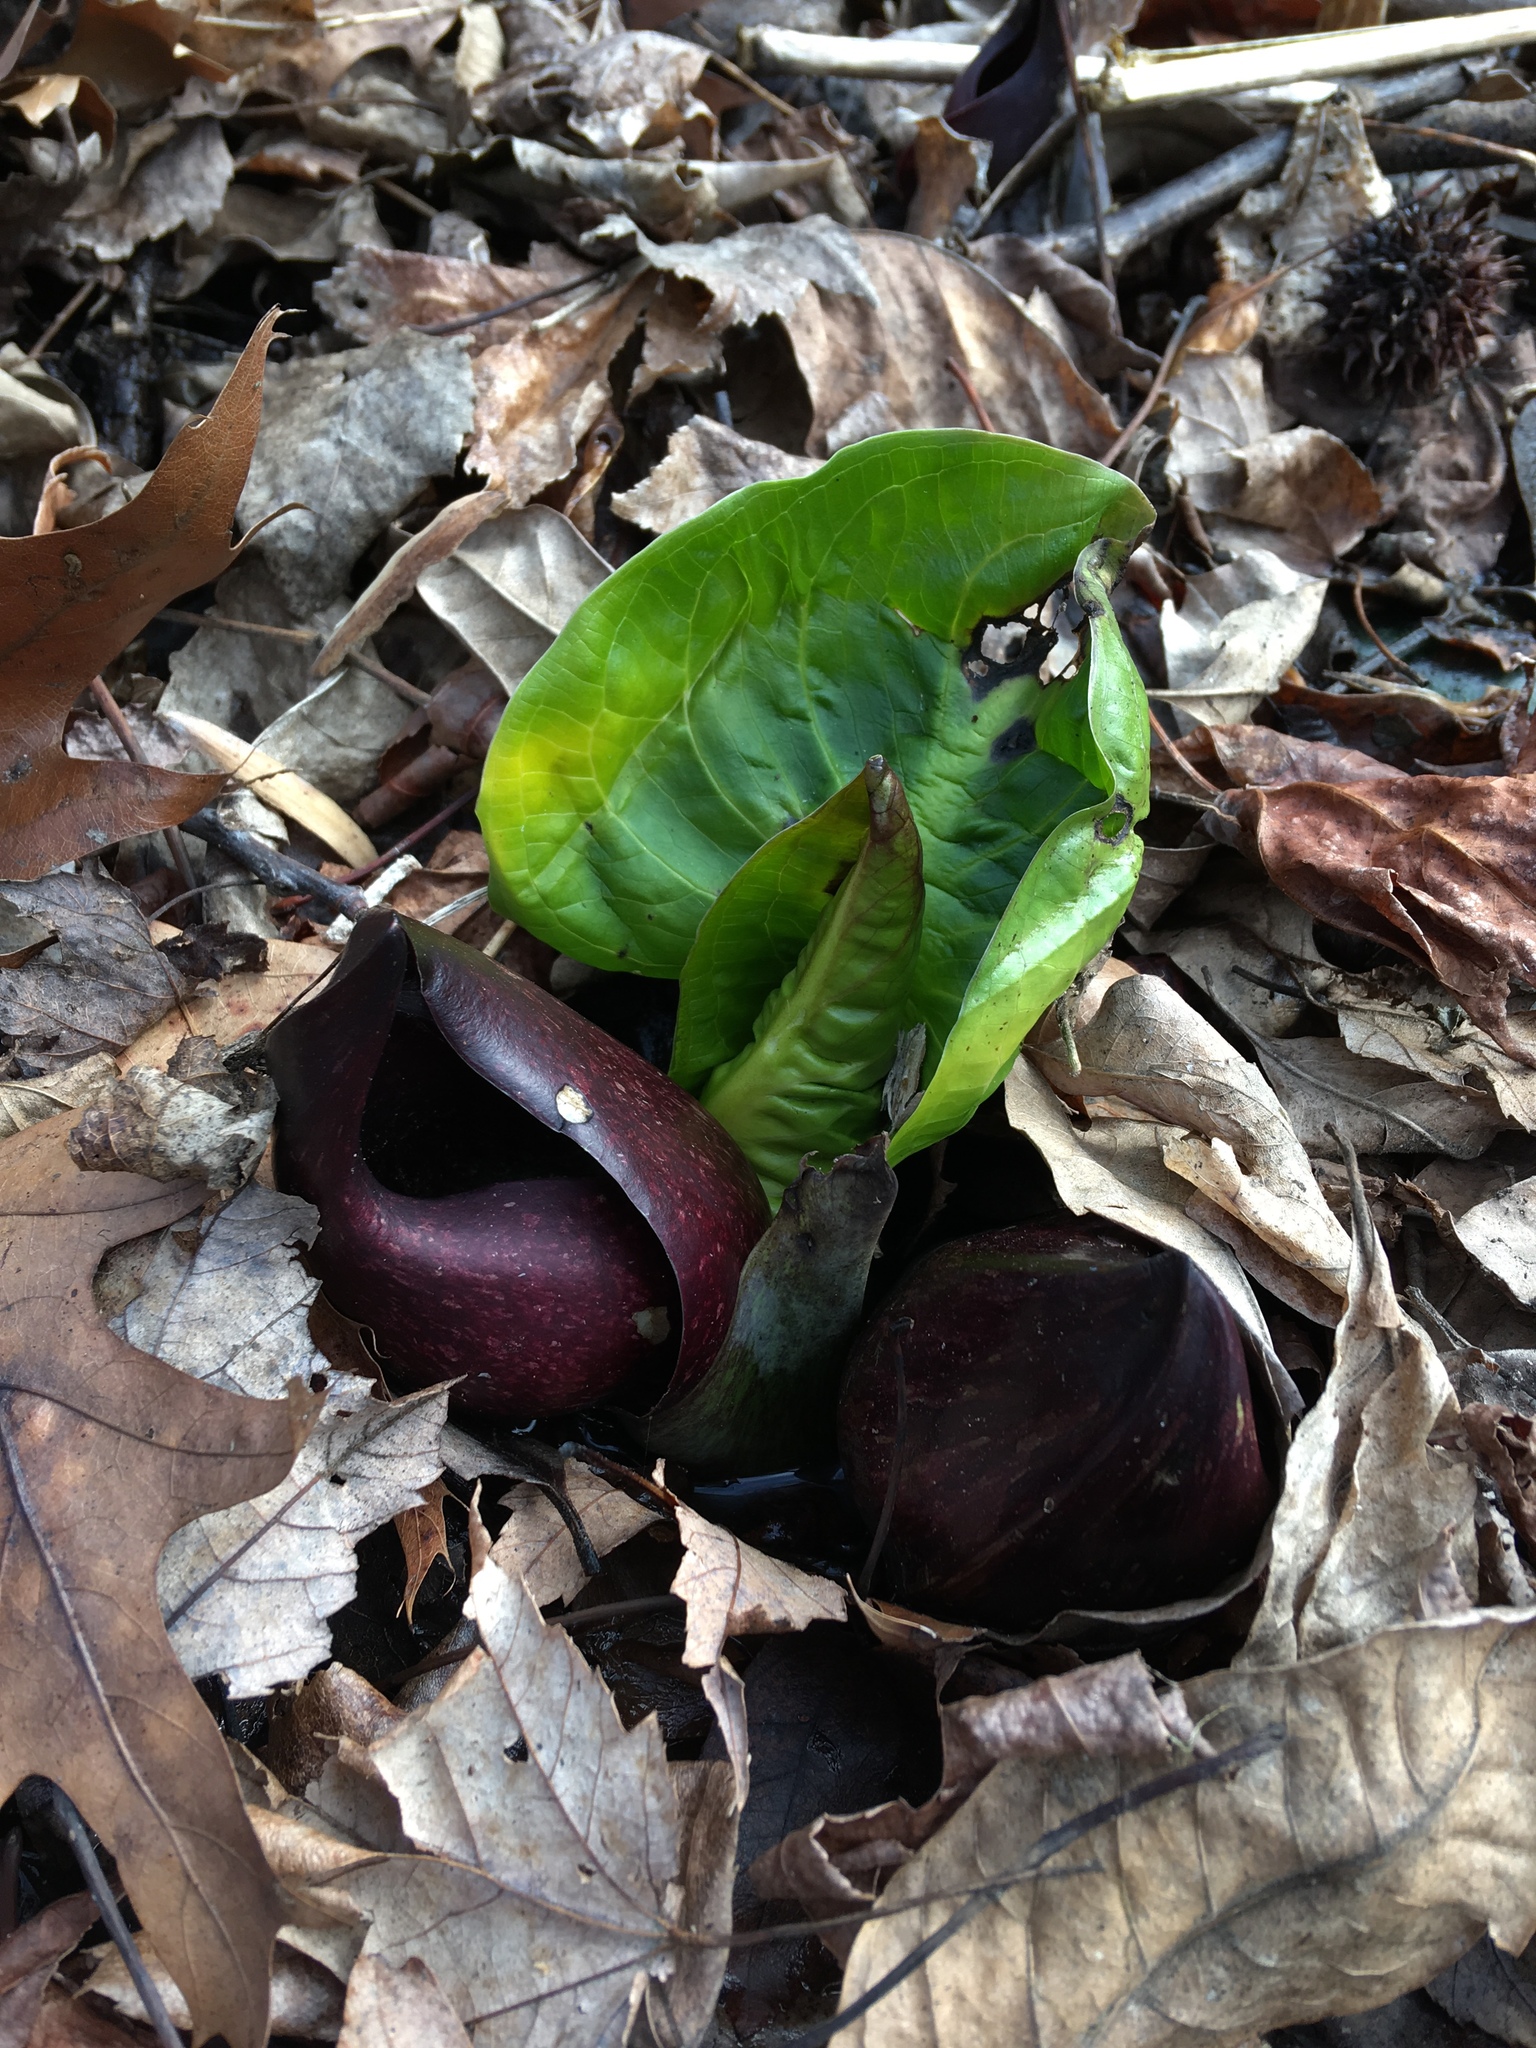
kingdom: Plantae
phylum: Tracheophyta
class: Liliopsida
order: Alismatales
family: Araceae
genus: Symplocarpus
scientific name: Symplocarpus foetidus
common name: Eastern skunk cabbage
